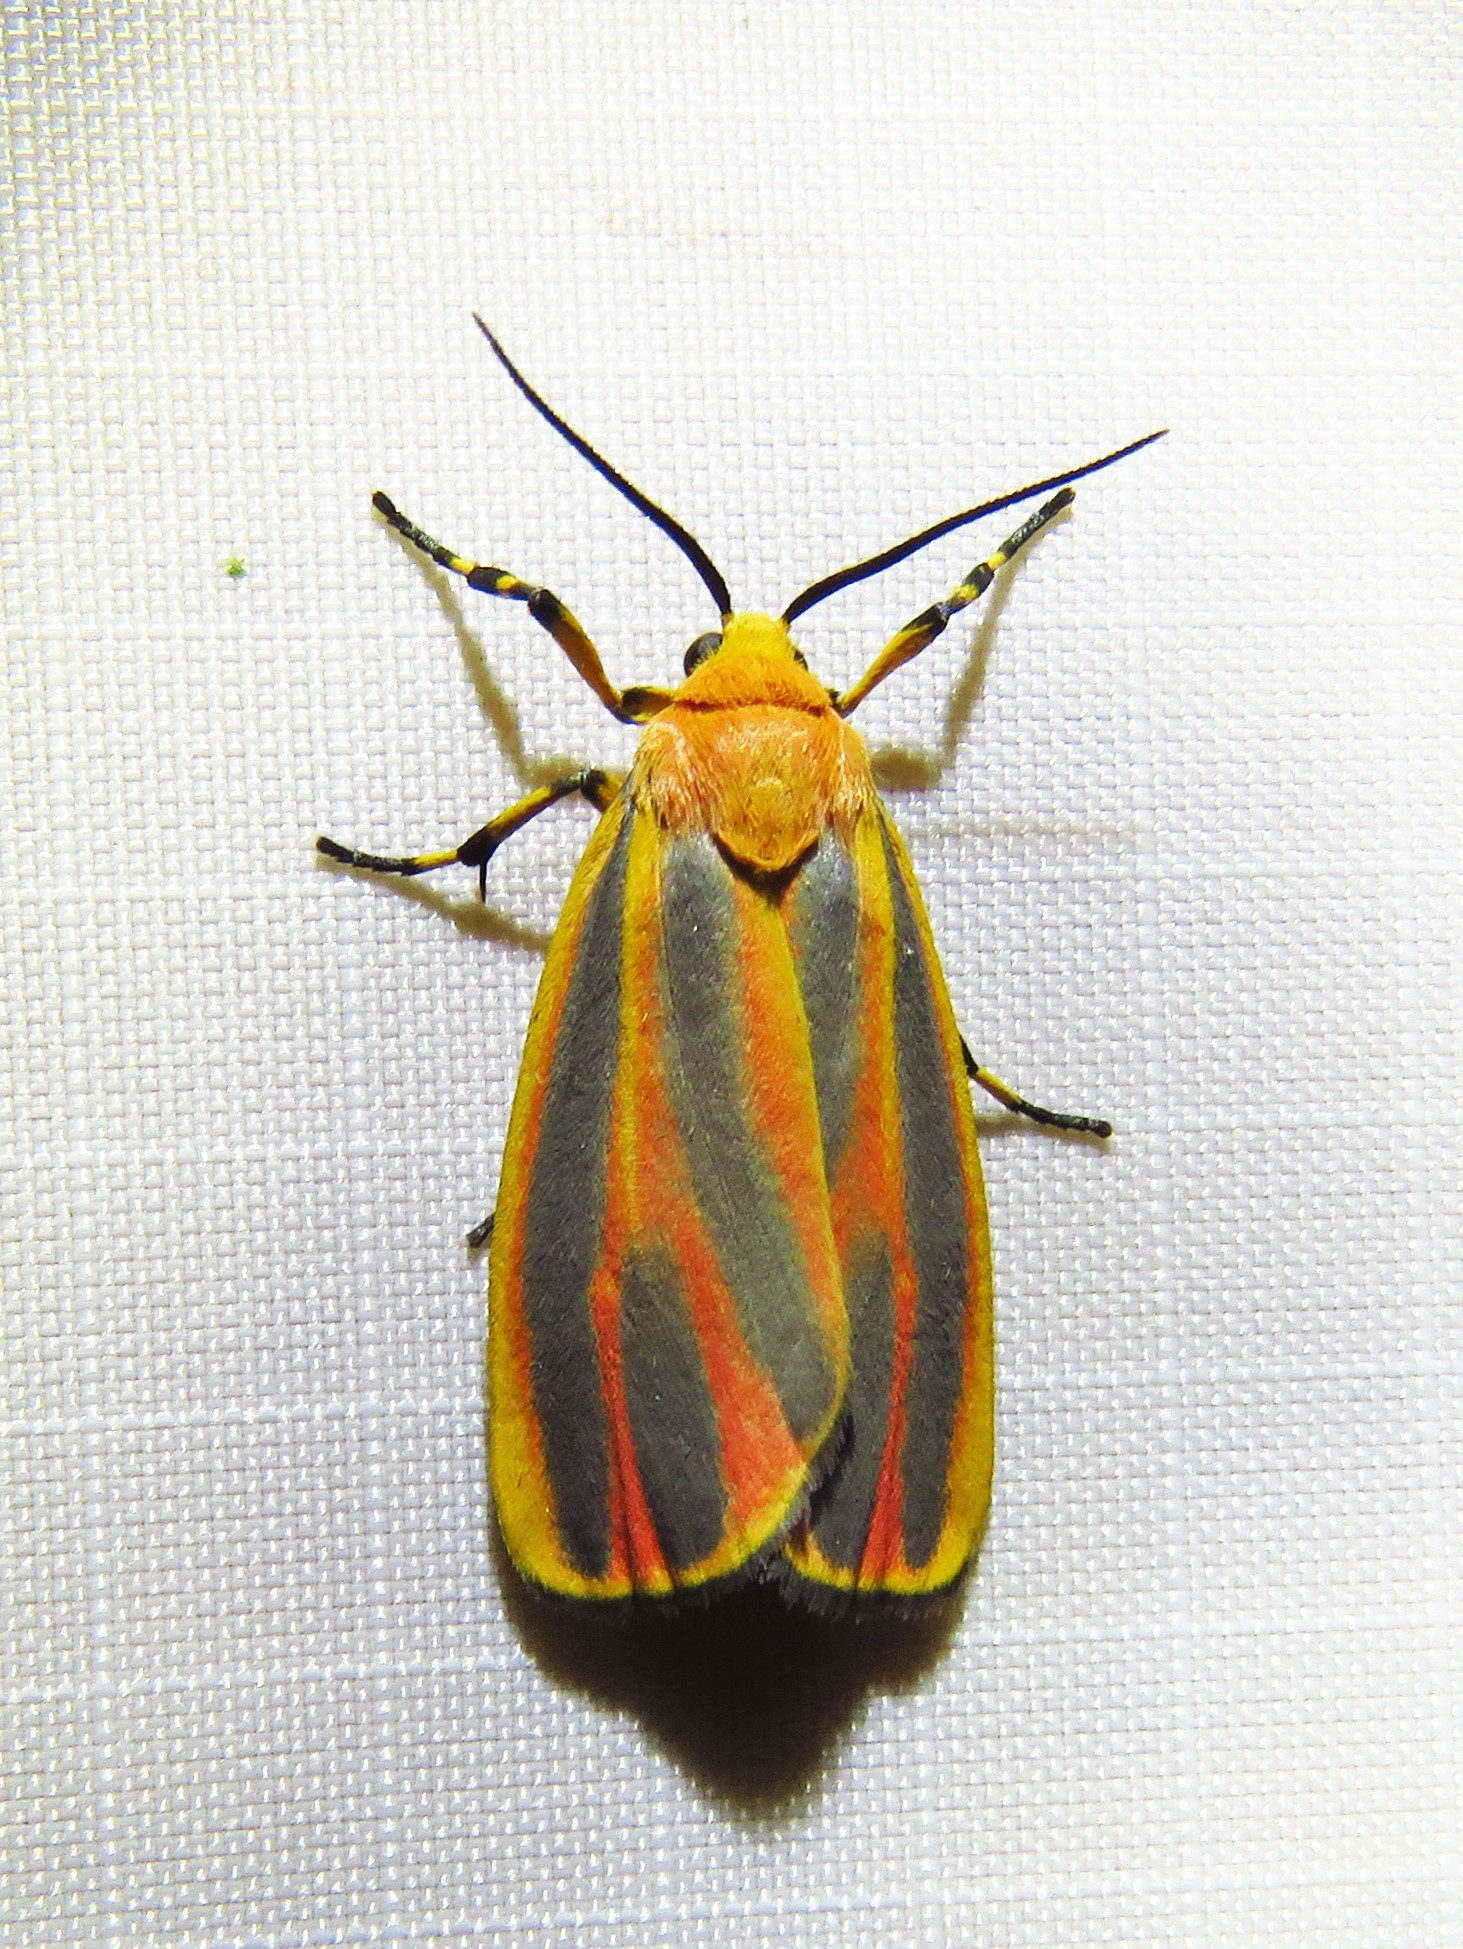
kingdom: Animalia
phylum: Arthropoda
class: Insecta
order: Lepidoptera
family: Erebidae
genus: Hypoprepia
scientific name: Hypoprepia fucosa
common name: Painted lichen moth
